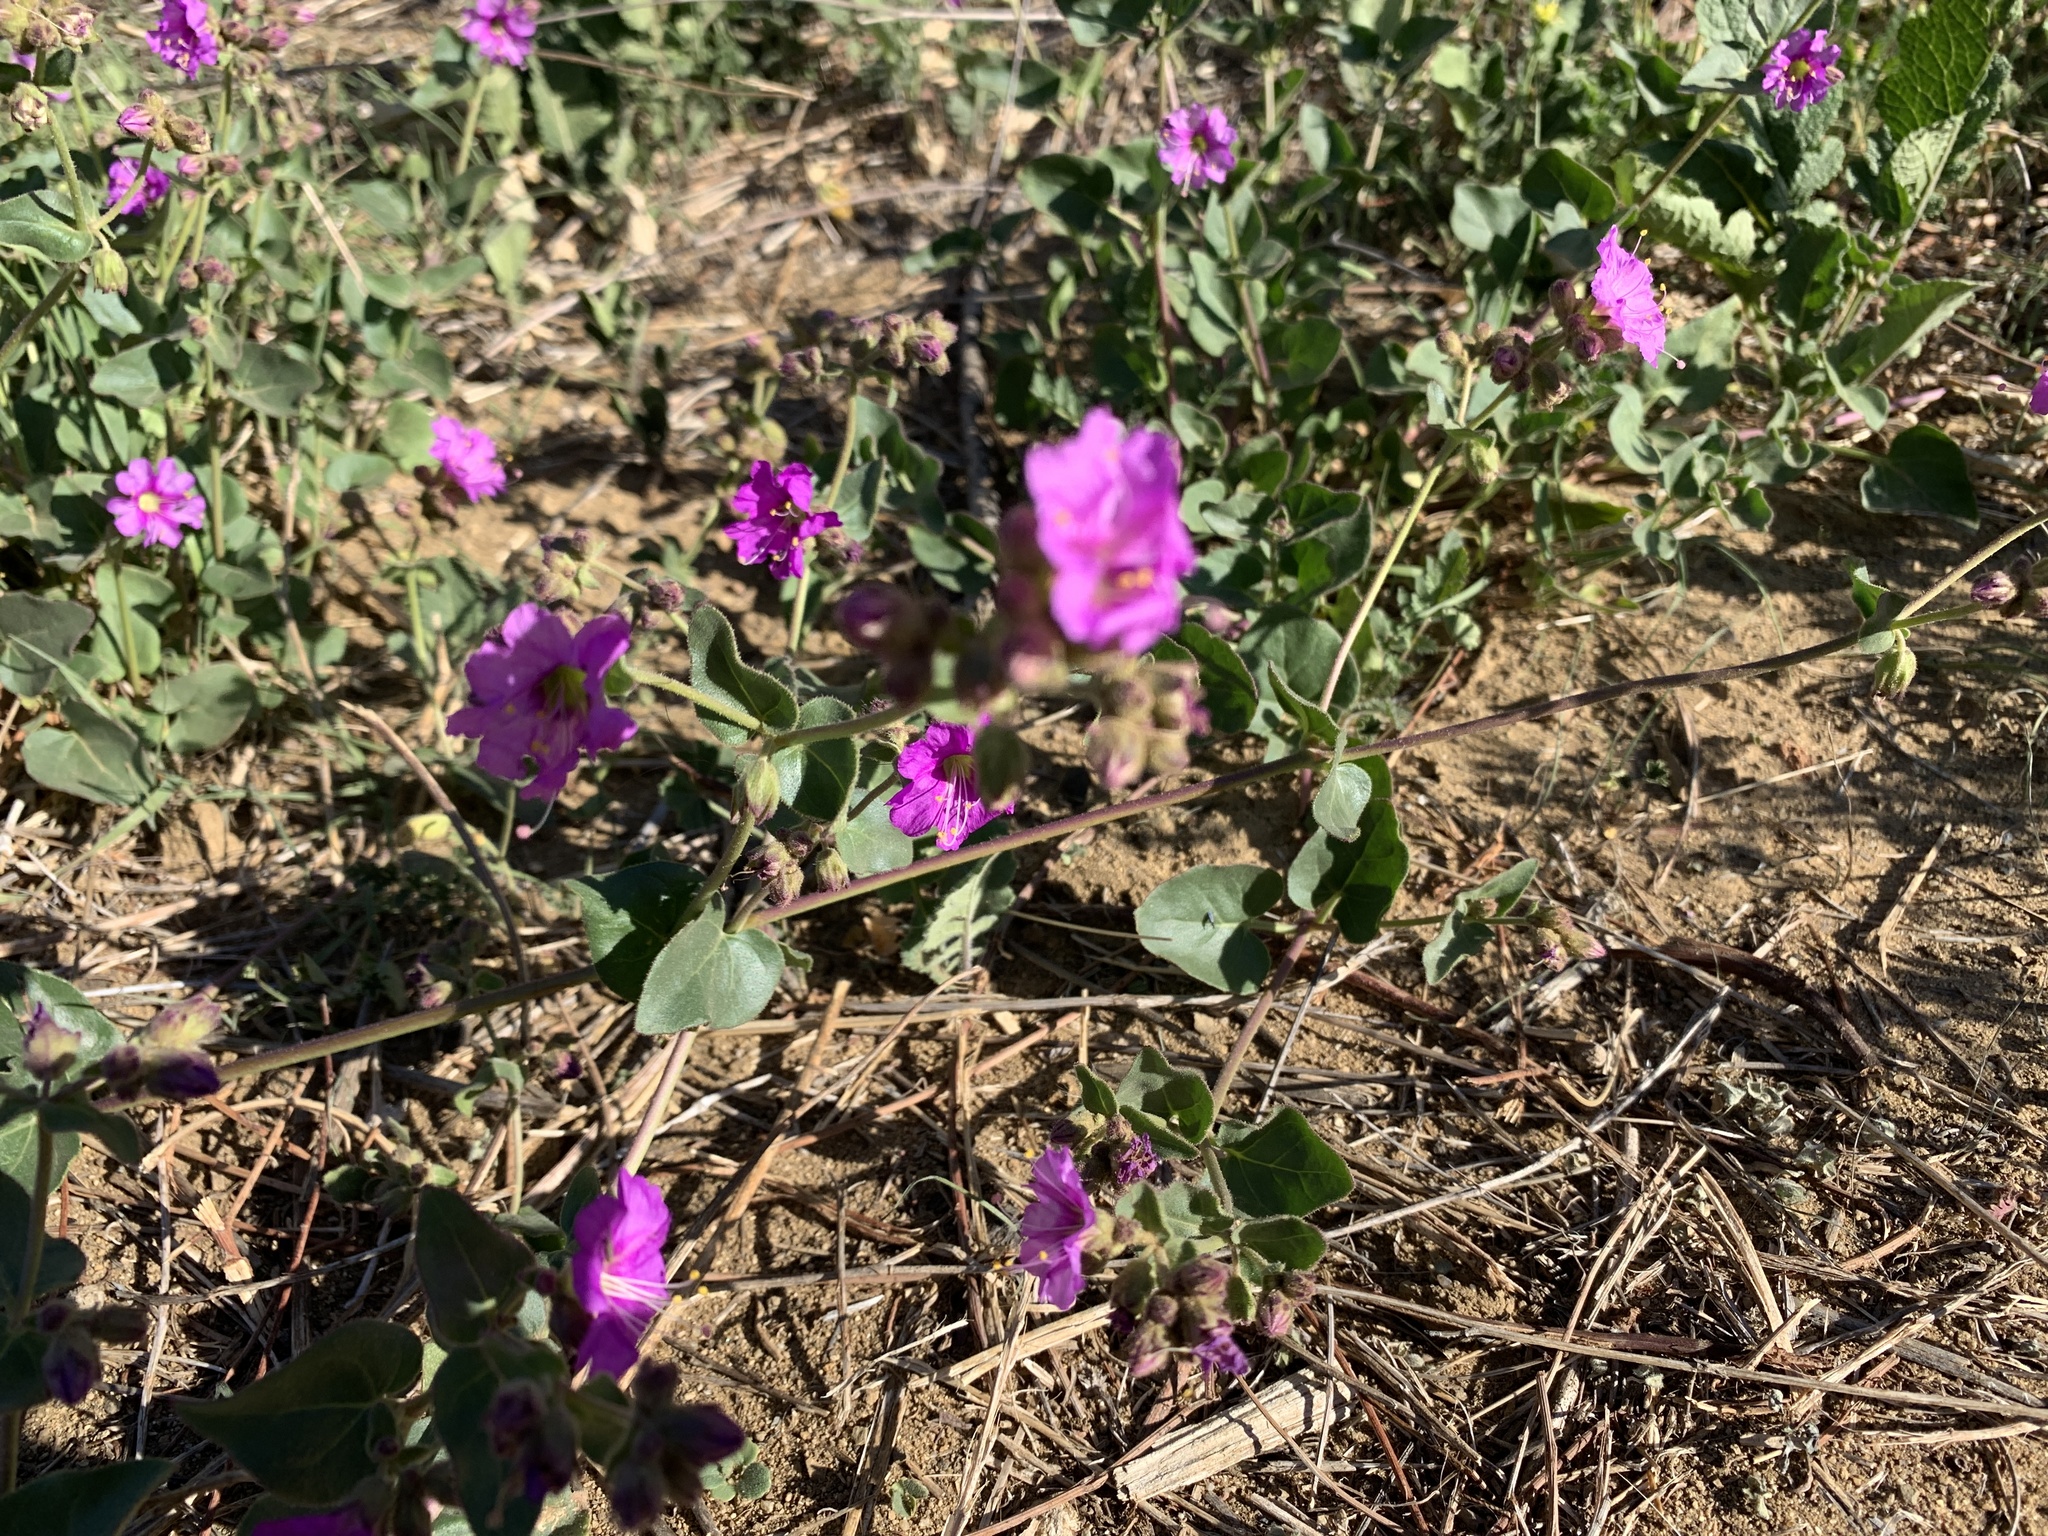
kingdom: Plantae
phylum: Tracheophyta
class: Magnoliopsida
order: Caryophyllales
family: Nyctaginaceae
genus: Mirabilis
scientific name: Mirabilis laevis
